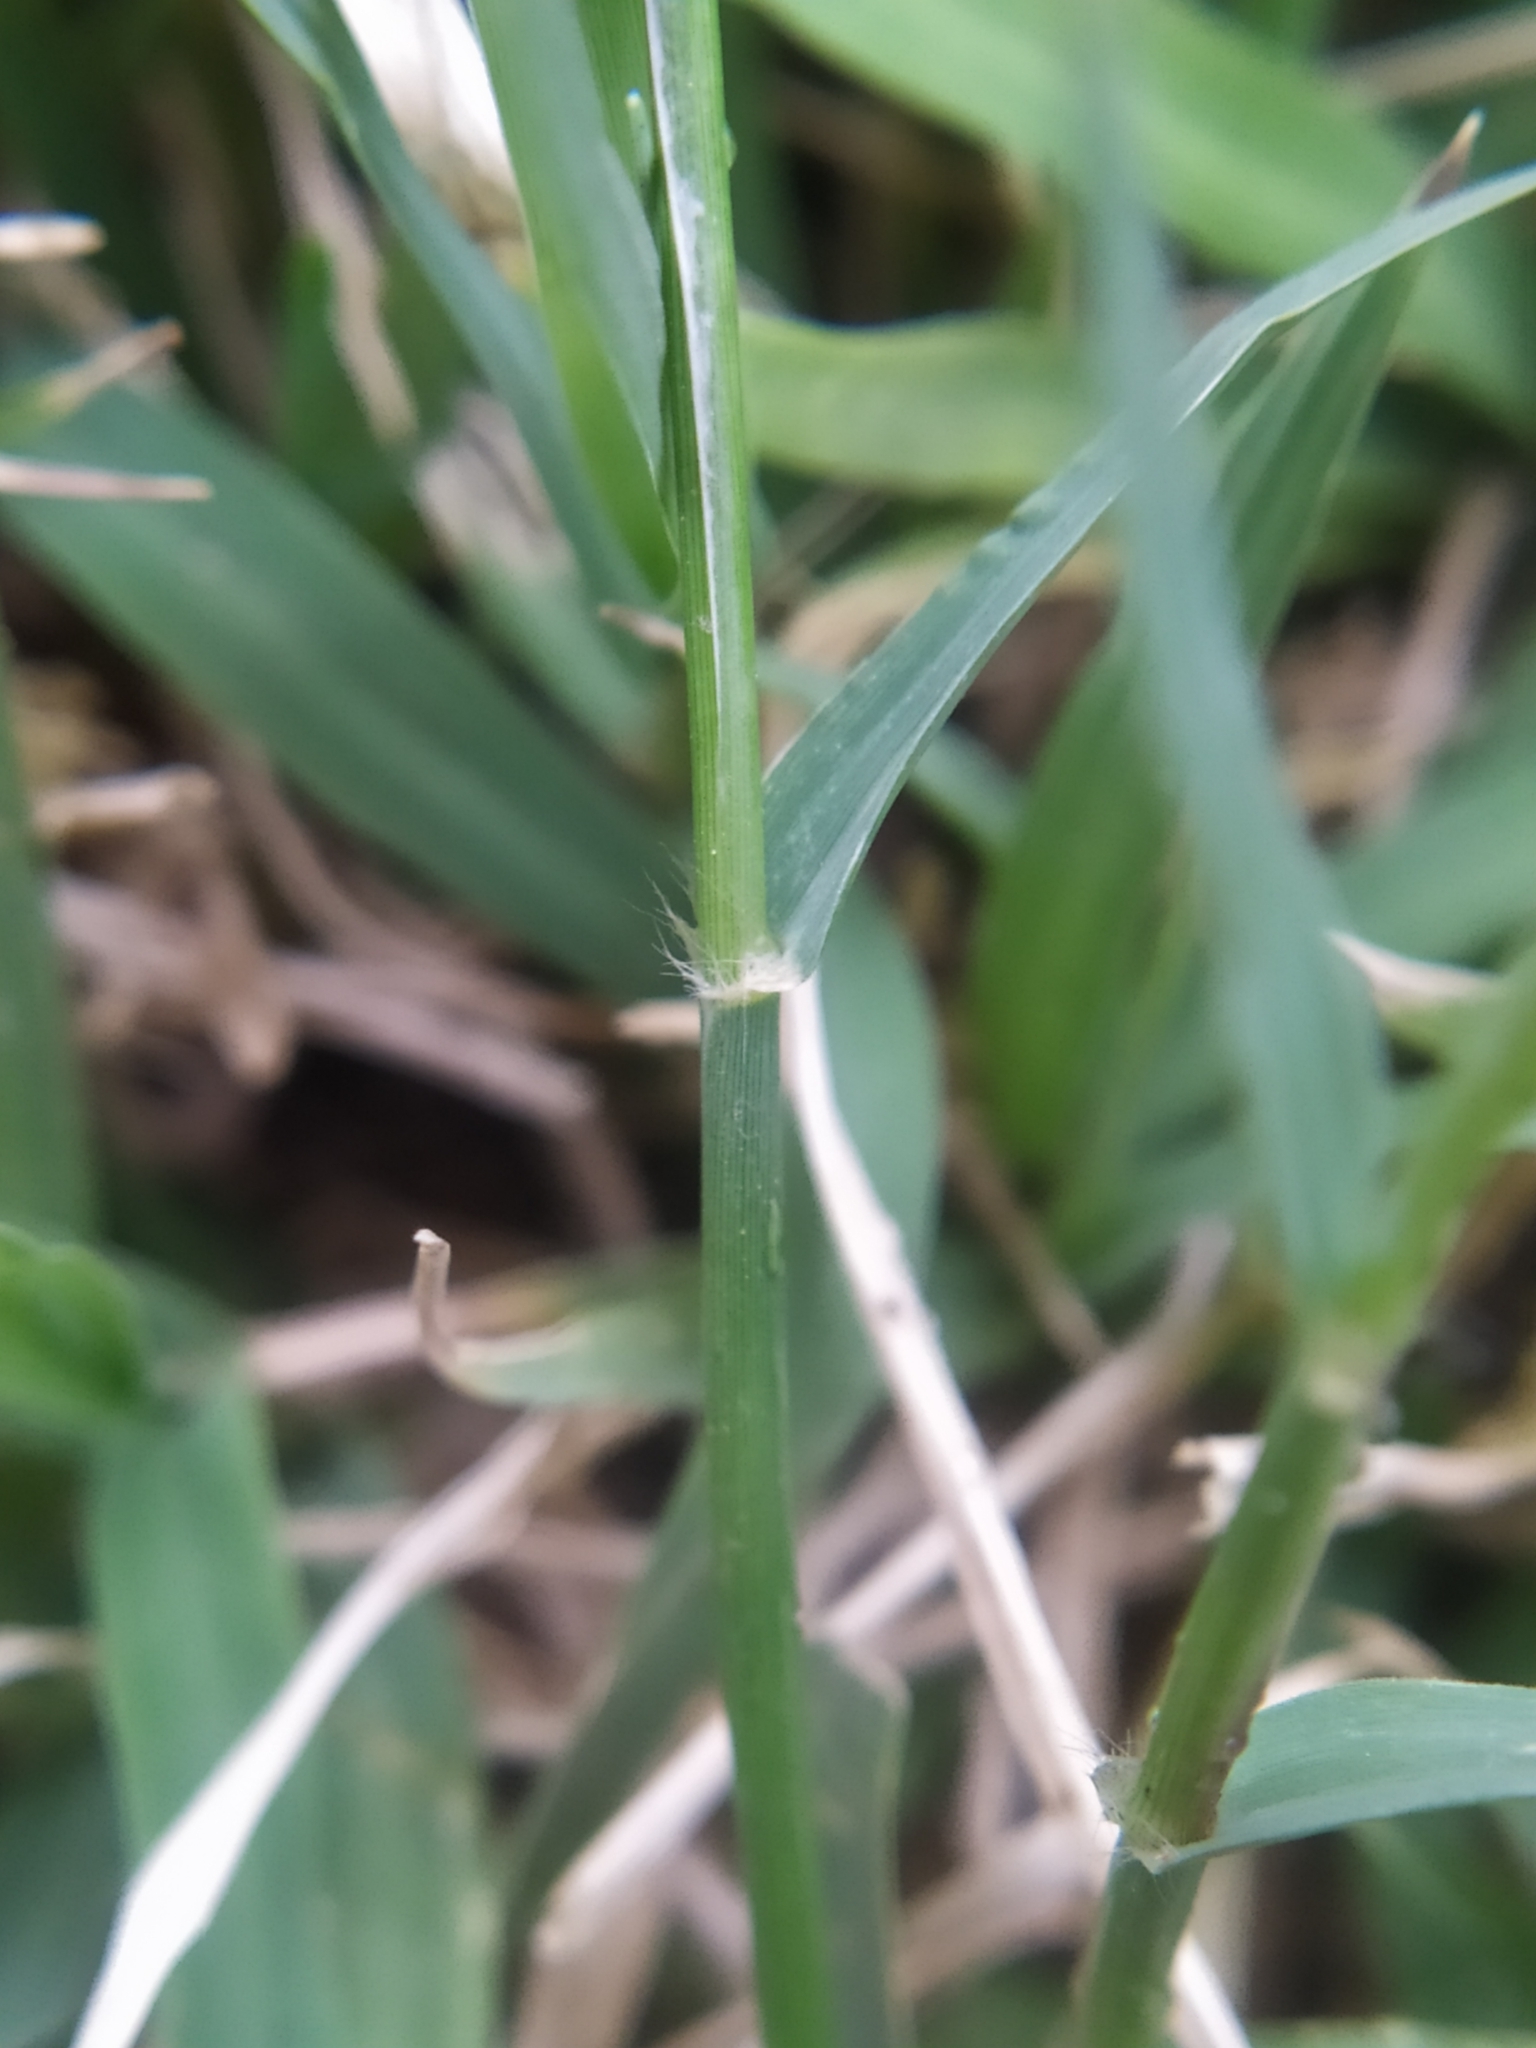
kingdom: Plantae
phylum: Tracheophyta
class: Liliopsida
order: Poales
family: Poaceae
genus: Cynodon
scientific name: Cynodon dactylon
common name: Bermuda grass
